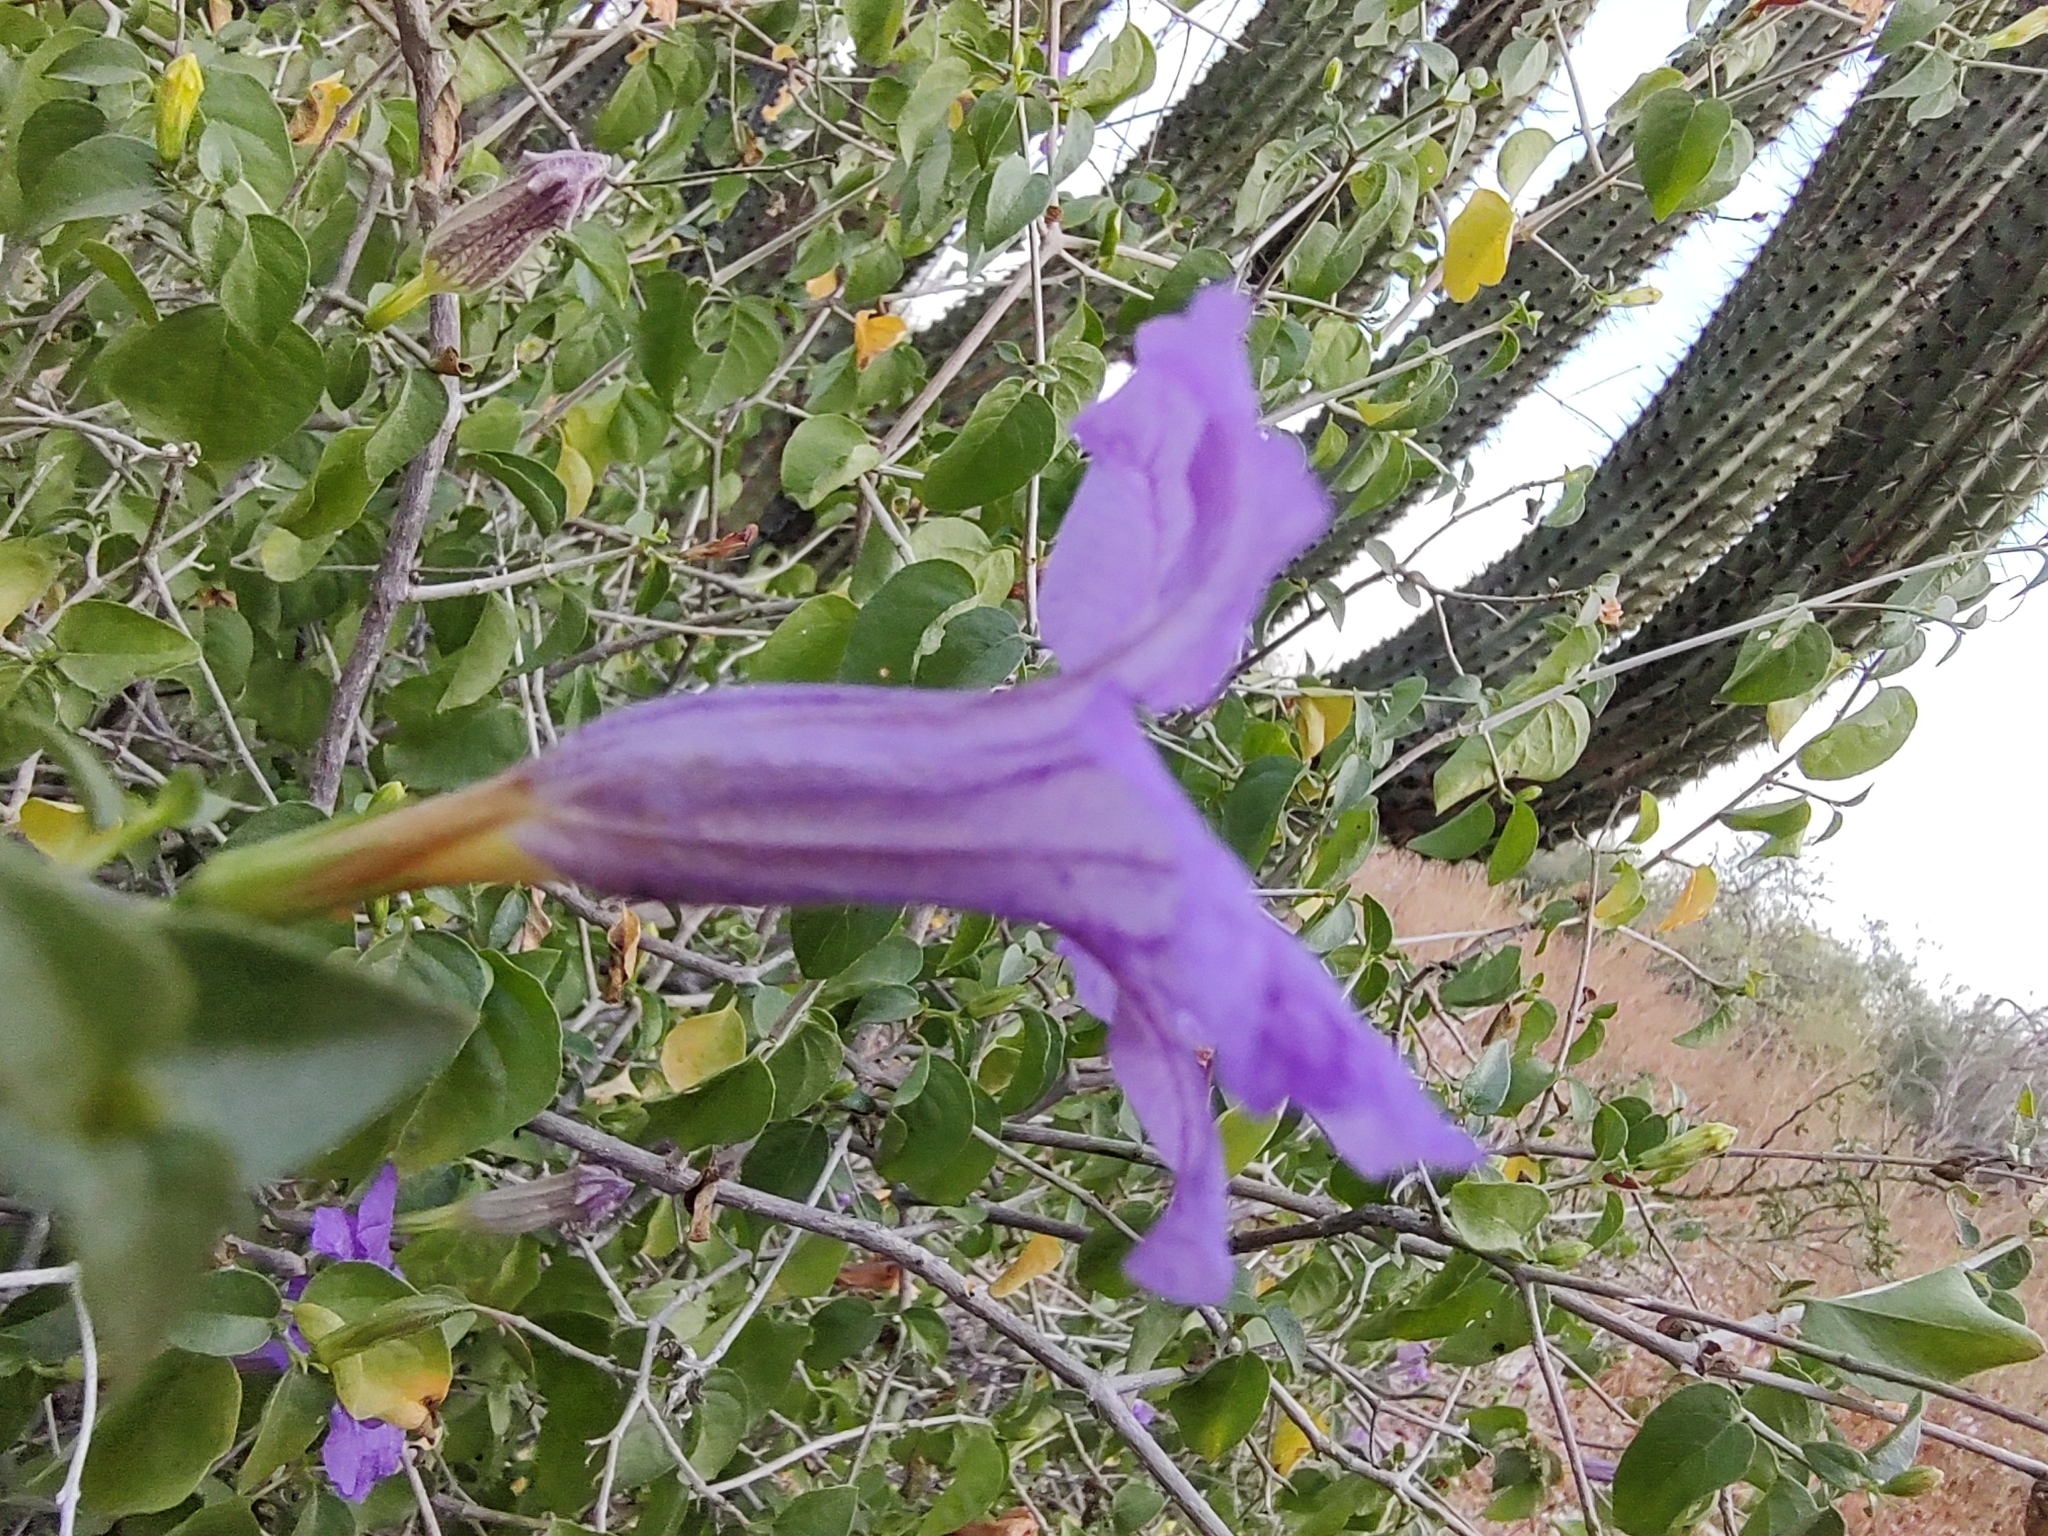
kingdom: Plantae
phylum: Tracheophyta
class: Magnoliopsida
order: Lamiales
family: Acanthaceae
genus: Ruellia
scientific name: Ruellia californica
